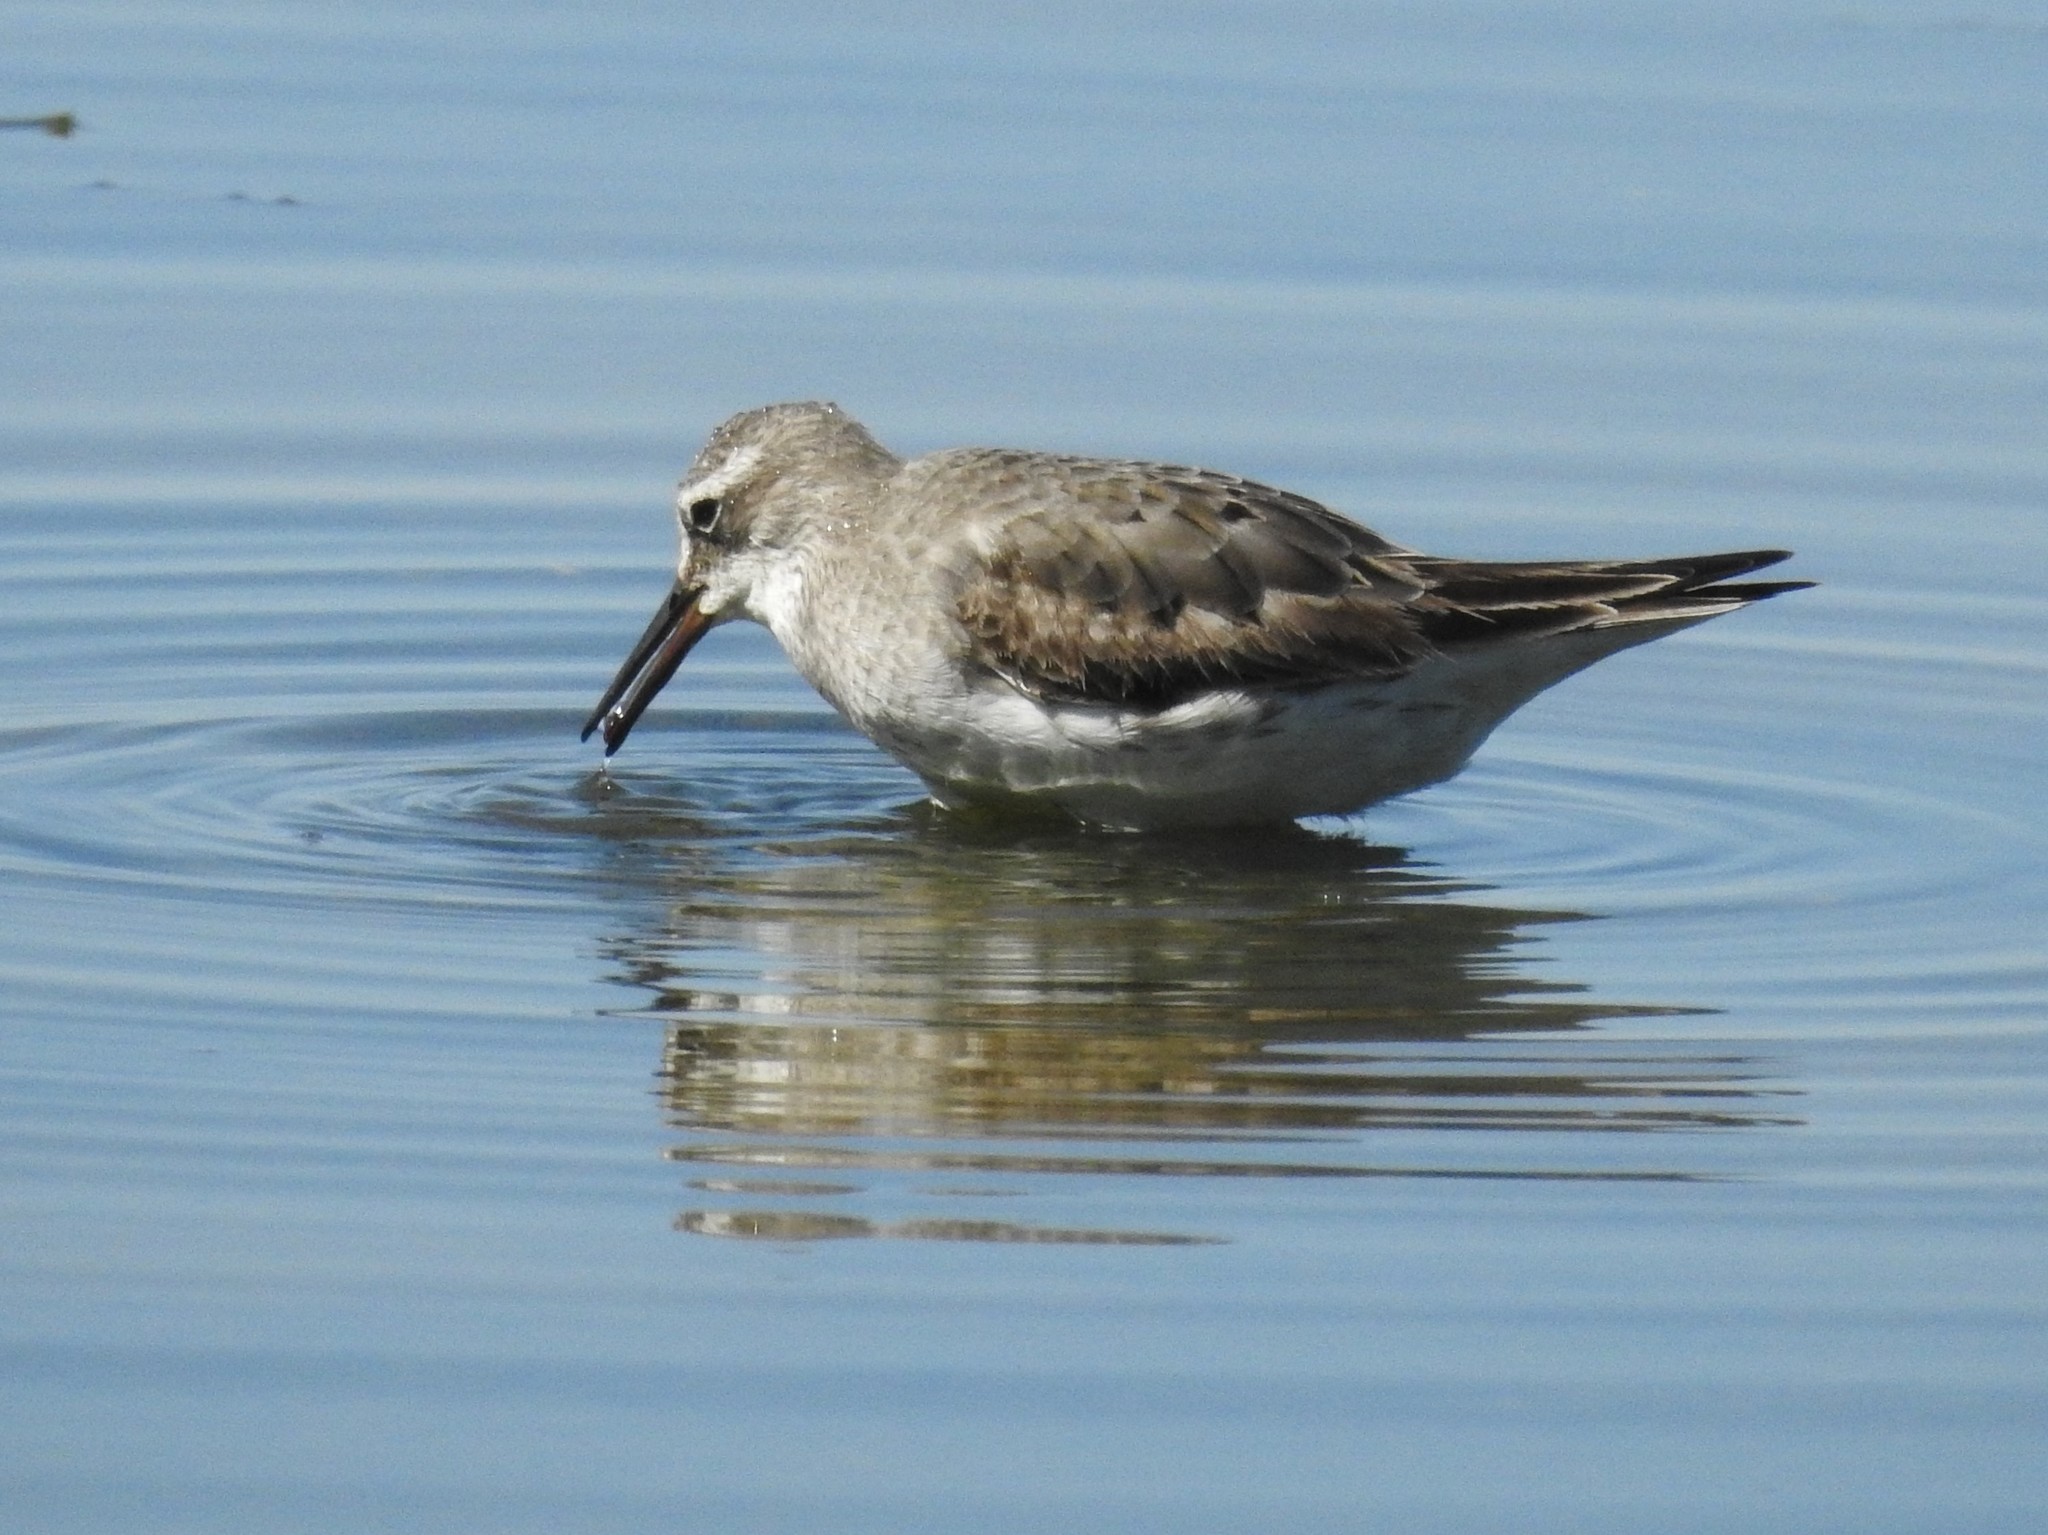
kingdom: Animalia
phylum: Chordata
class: Aves
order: Charadriiformes
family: Scolopacidae
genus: Calidris
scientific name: Calidris fuscicollis
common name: White-rumped sandpiper
